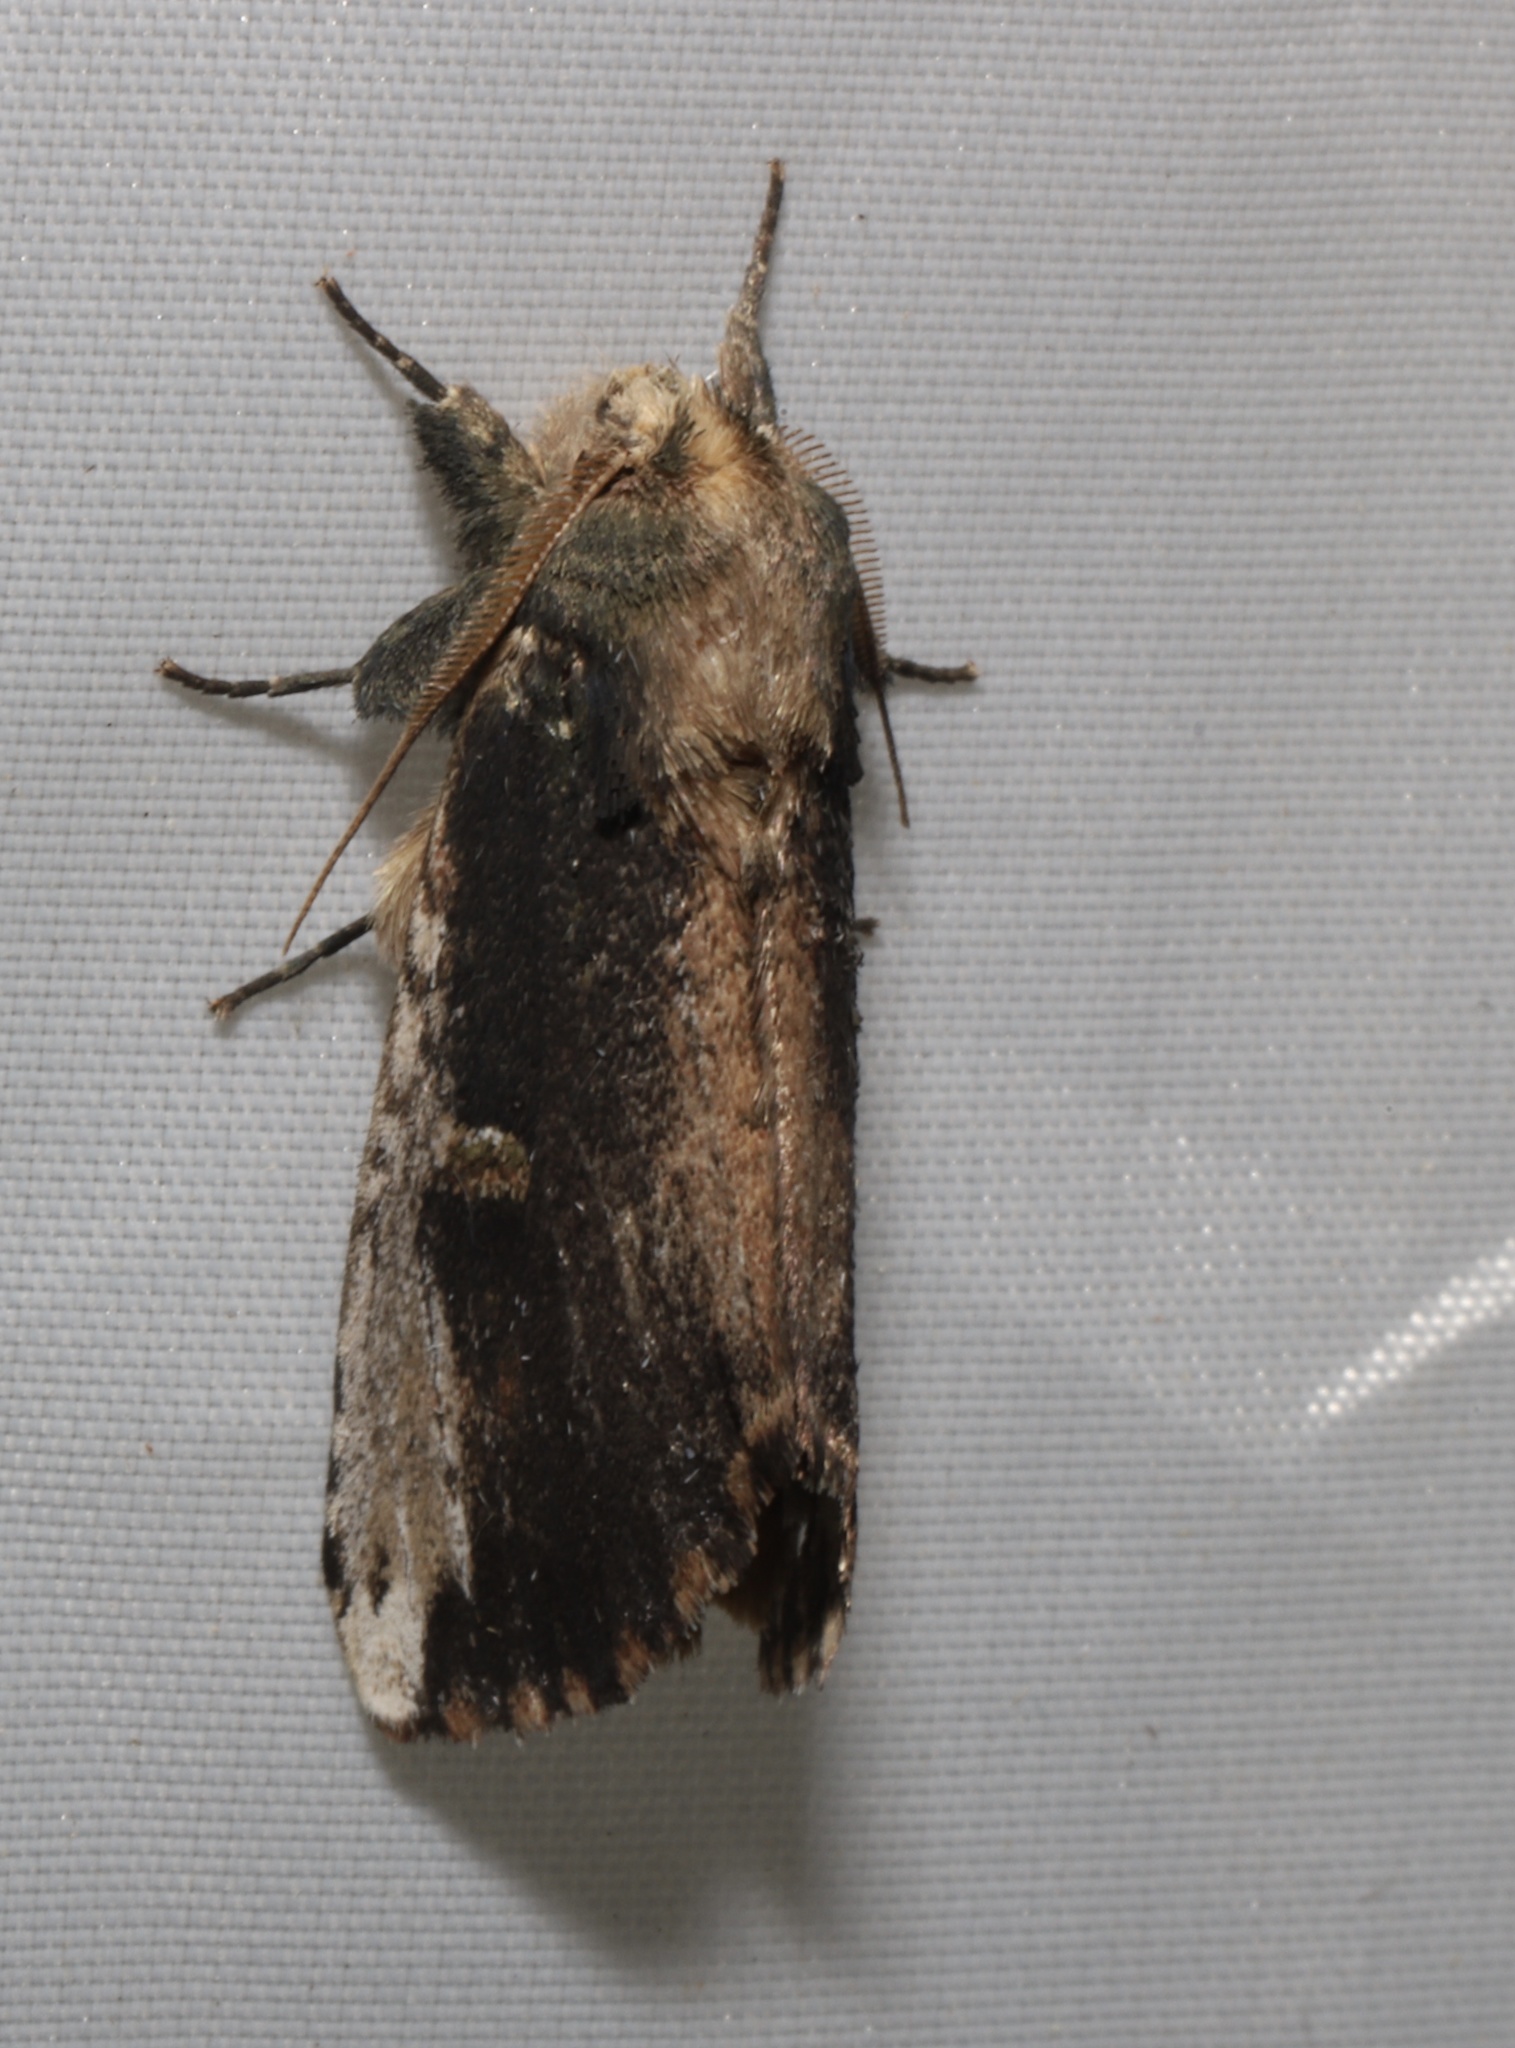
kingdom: Animalia
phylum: Arthropoda
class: Insecta
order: Lepidoptera
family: Notodontidae
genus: Schizura
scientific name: Schizura ipomaeae
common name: Morning-glory prominent
